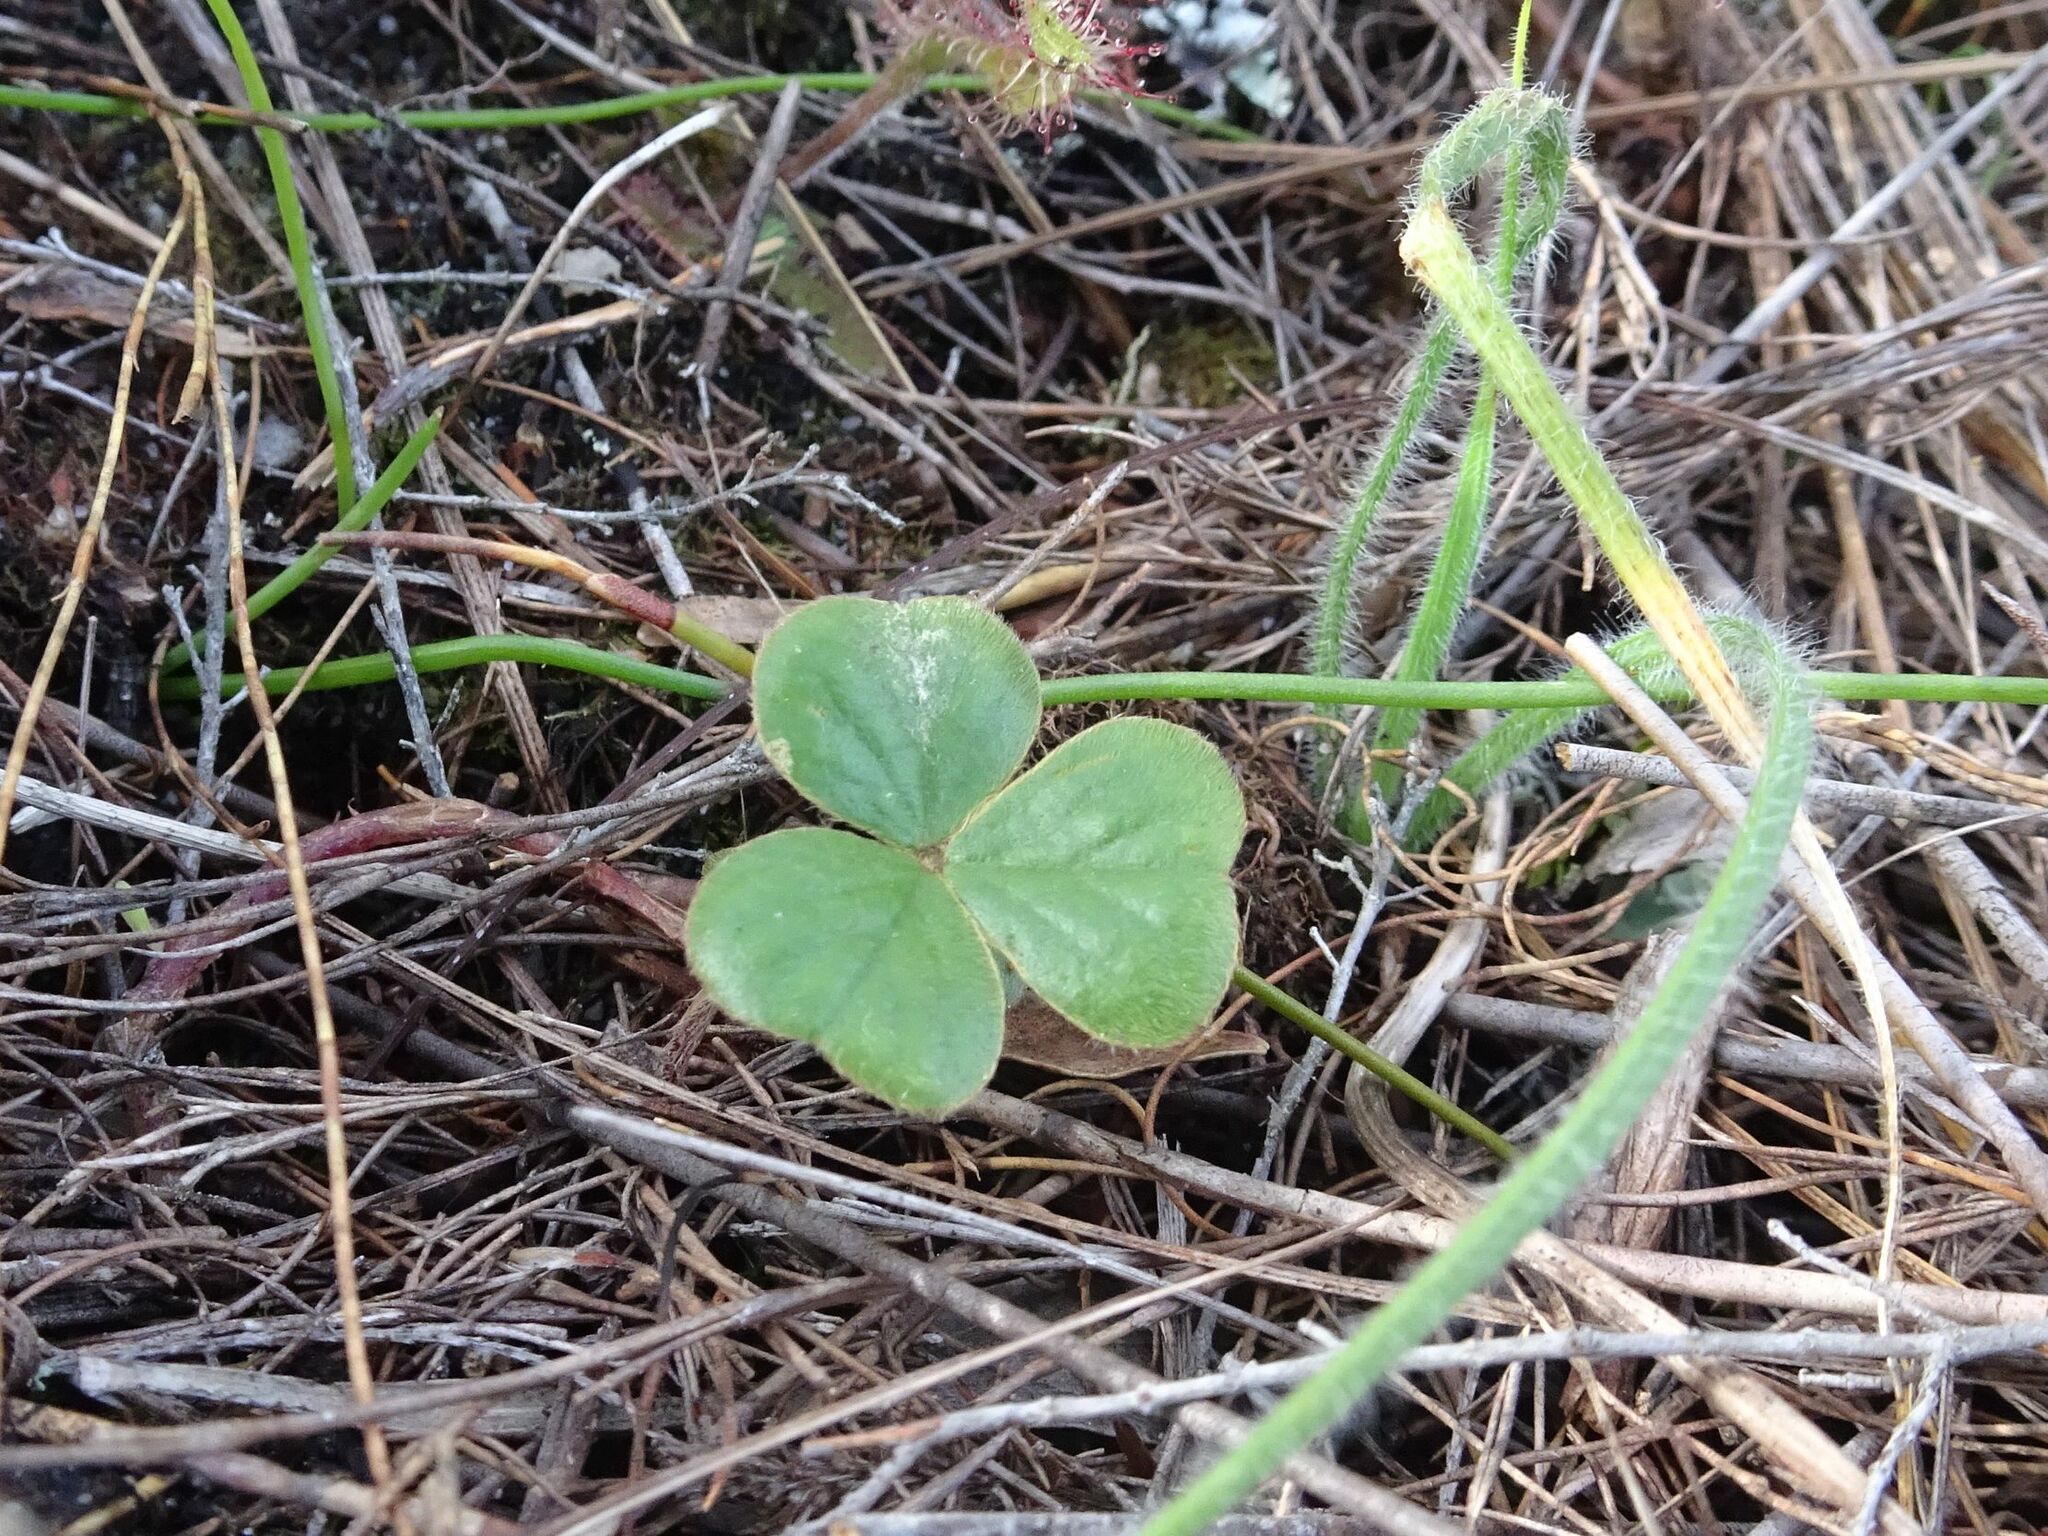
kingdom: Plantae
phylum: Tracheophyta
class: Magnoliopsida
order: Oxalidales
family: Oxalidaceae
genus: Oxalis
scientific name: Oxalis truncatula
